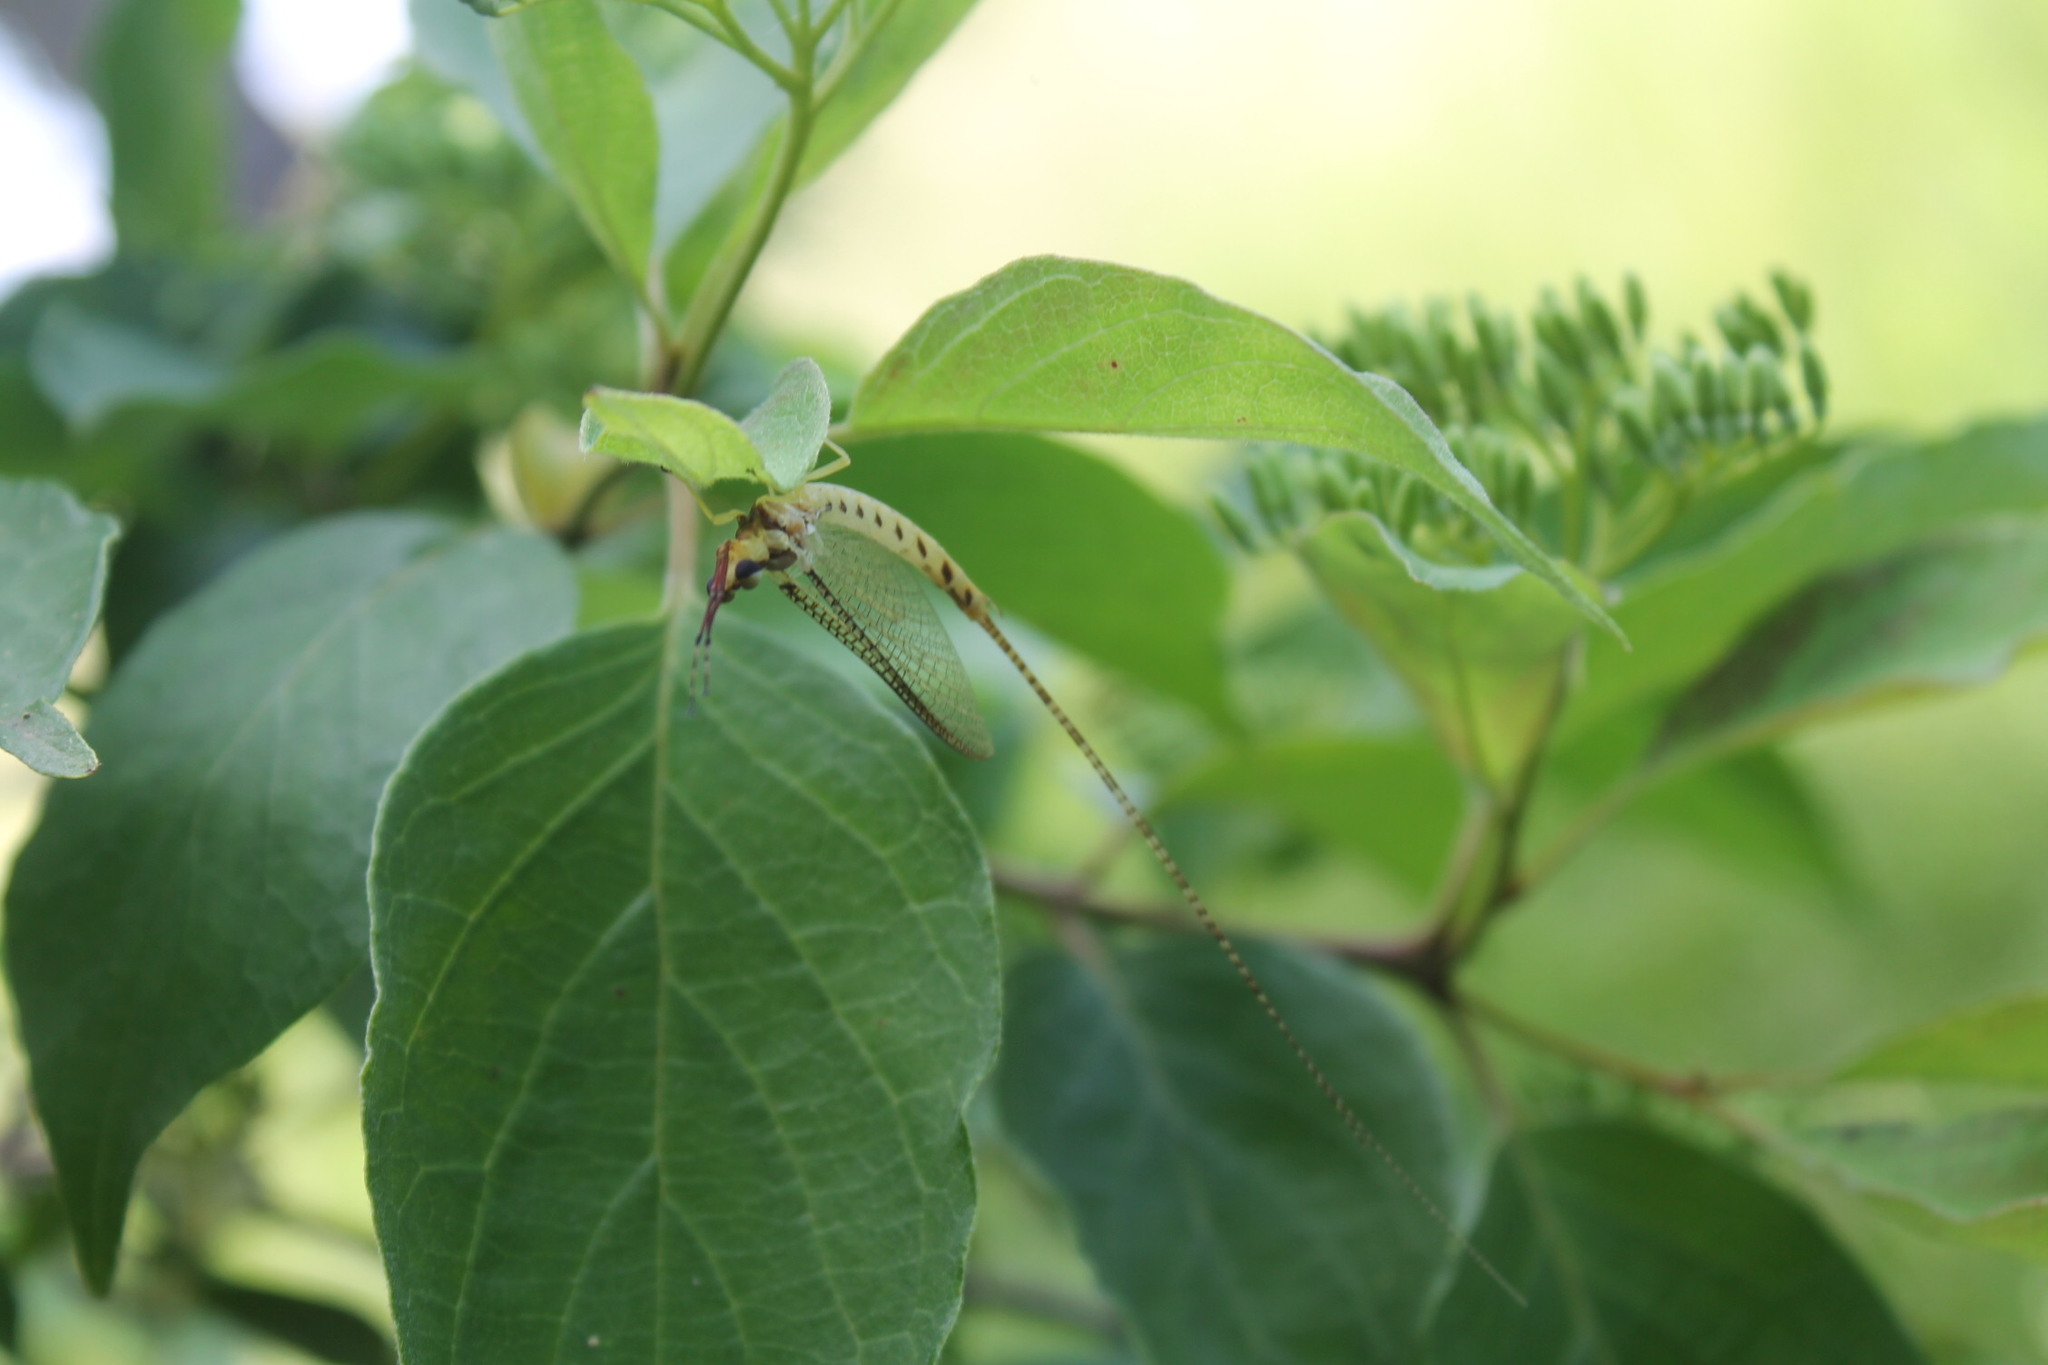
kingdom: Animalia
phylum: Arthropoda
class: Insecta
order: Ephemeroptera
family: Ephemeridae
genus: Hexagenia
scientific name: Hexagenia limbata
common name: Giant mayfly
